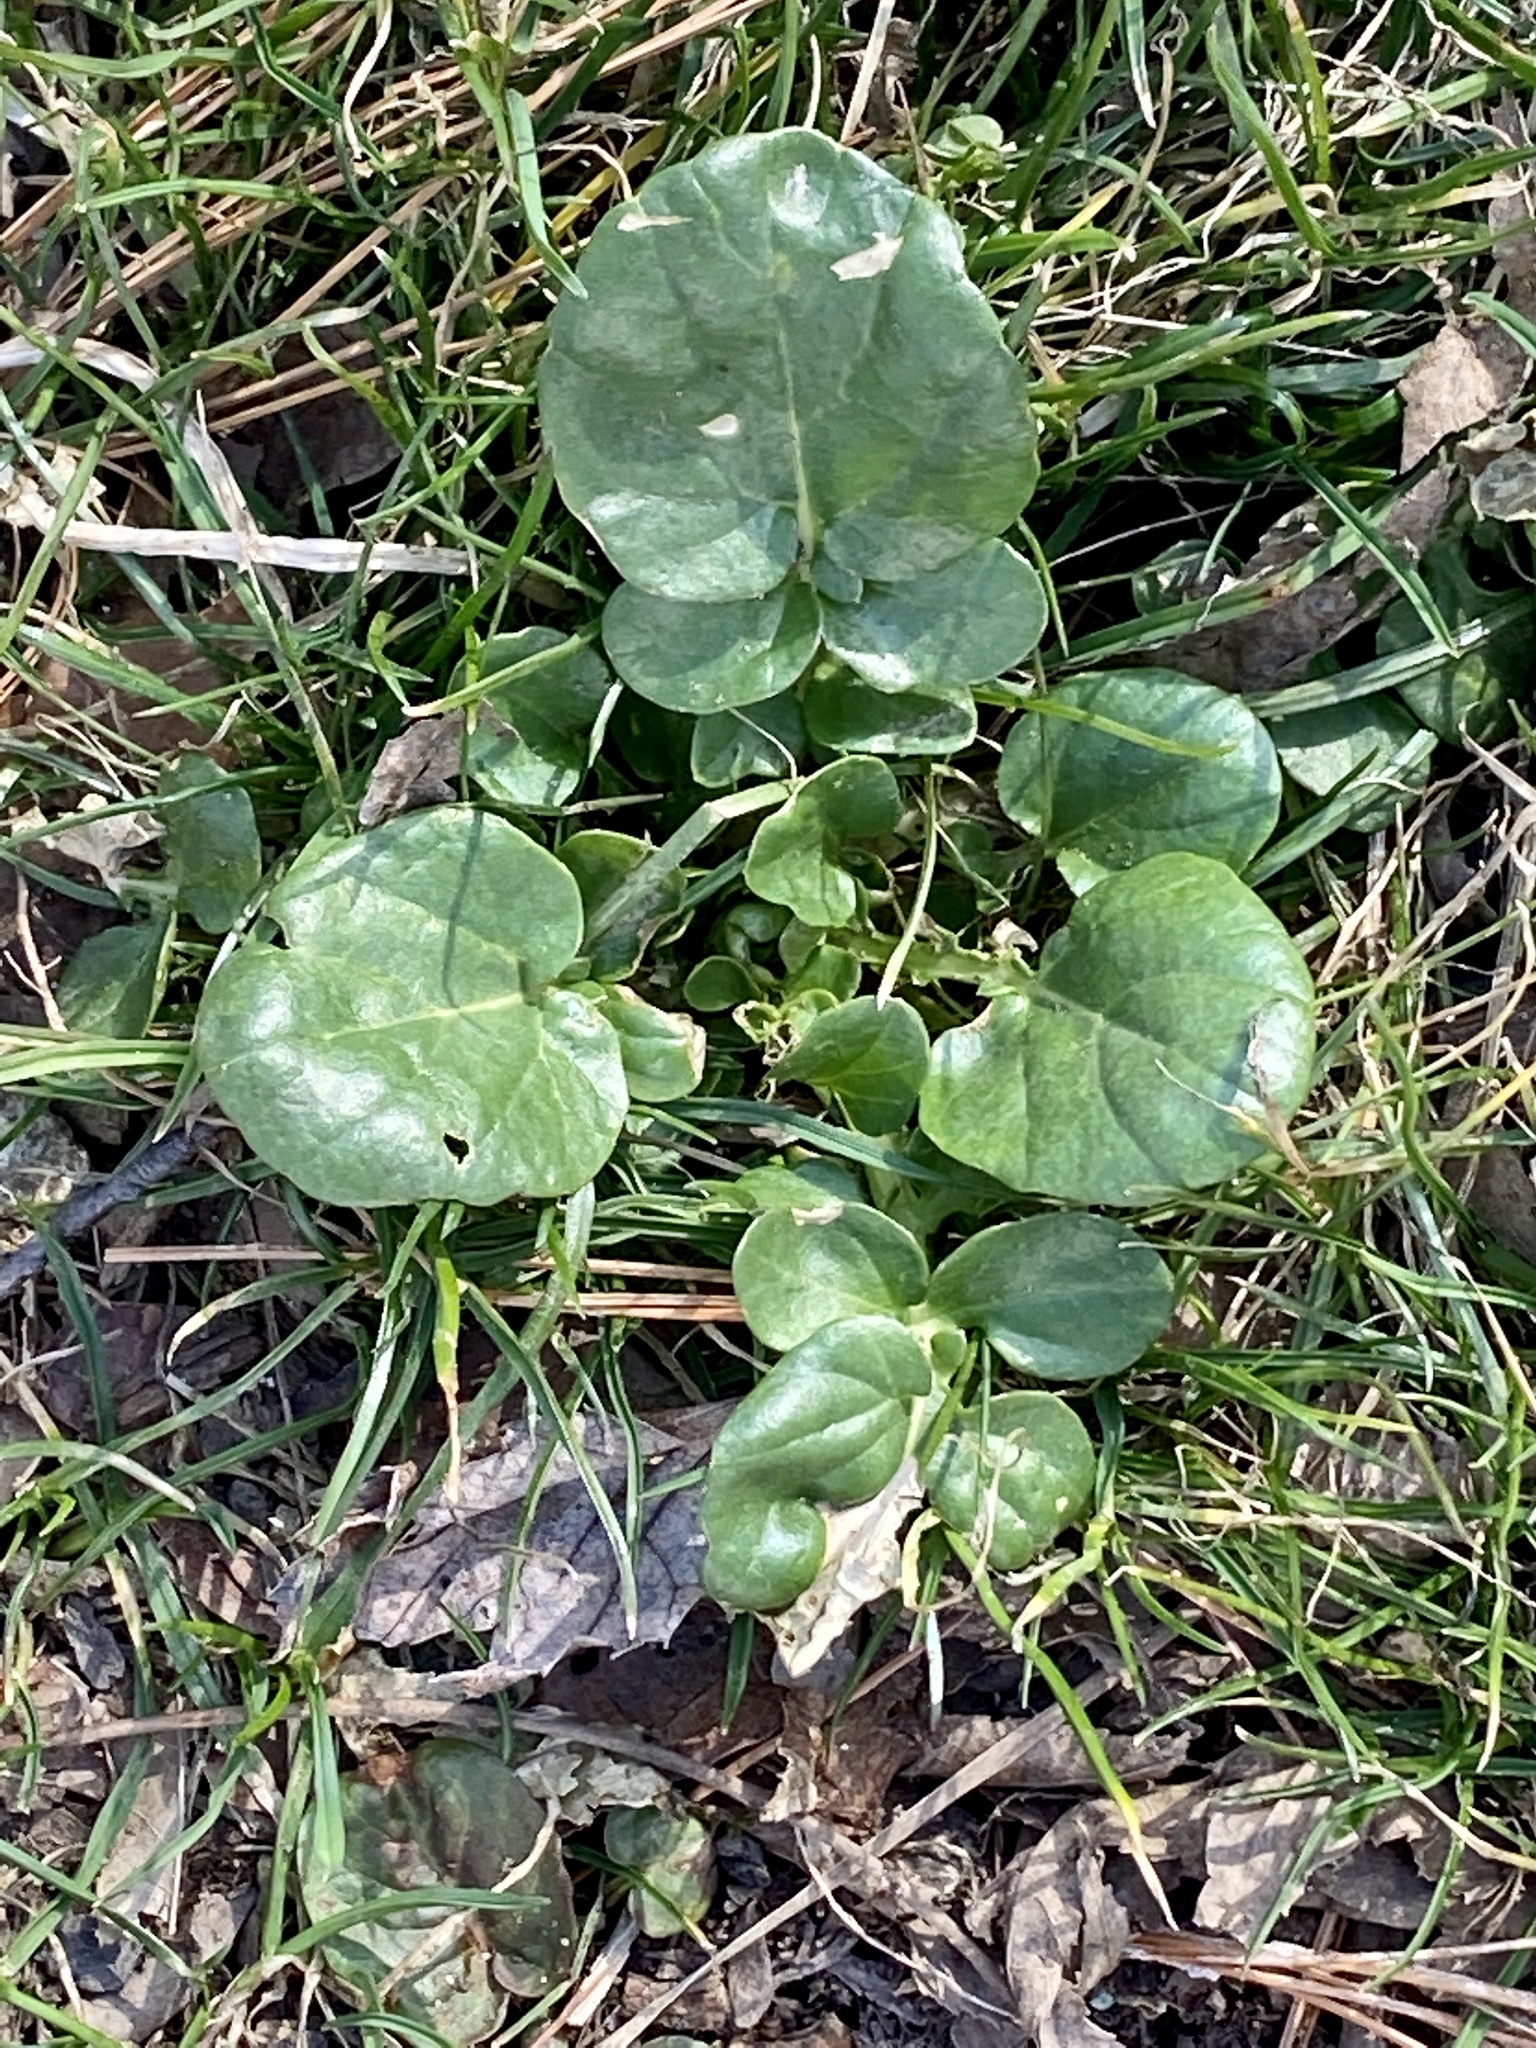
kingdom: Plantae
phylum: Tracheophyta
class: Magnoliopsida
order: Brassicales
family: Brassicaceae
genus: Barbarea
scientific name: Barbarea vulgaris
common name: Cressy-greens
